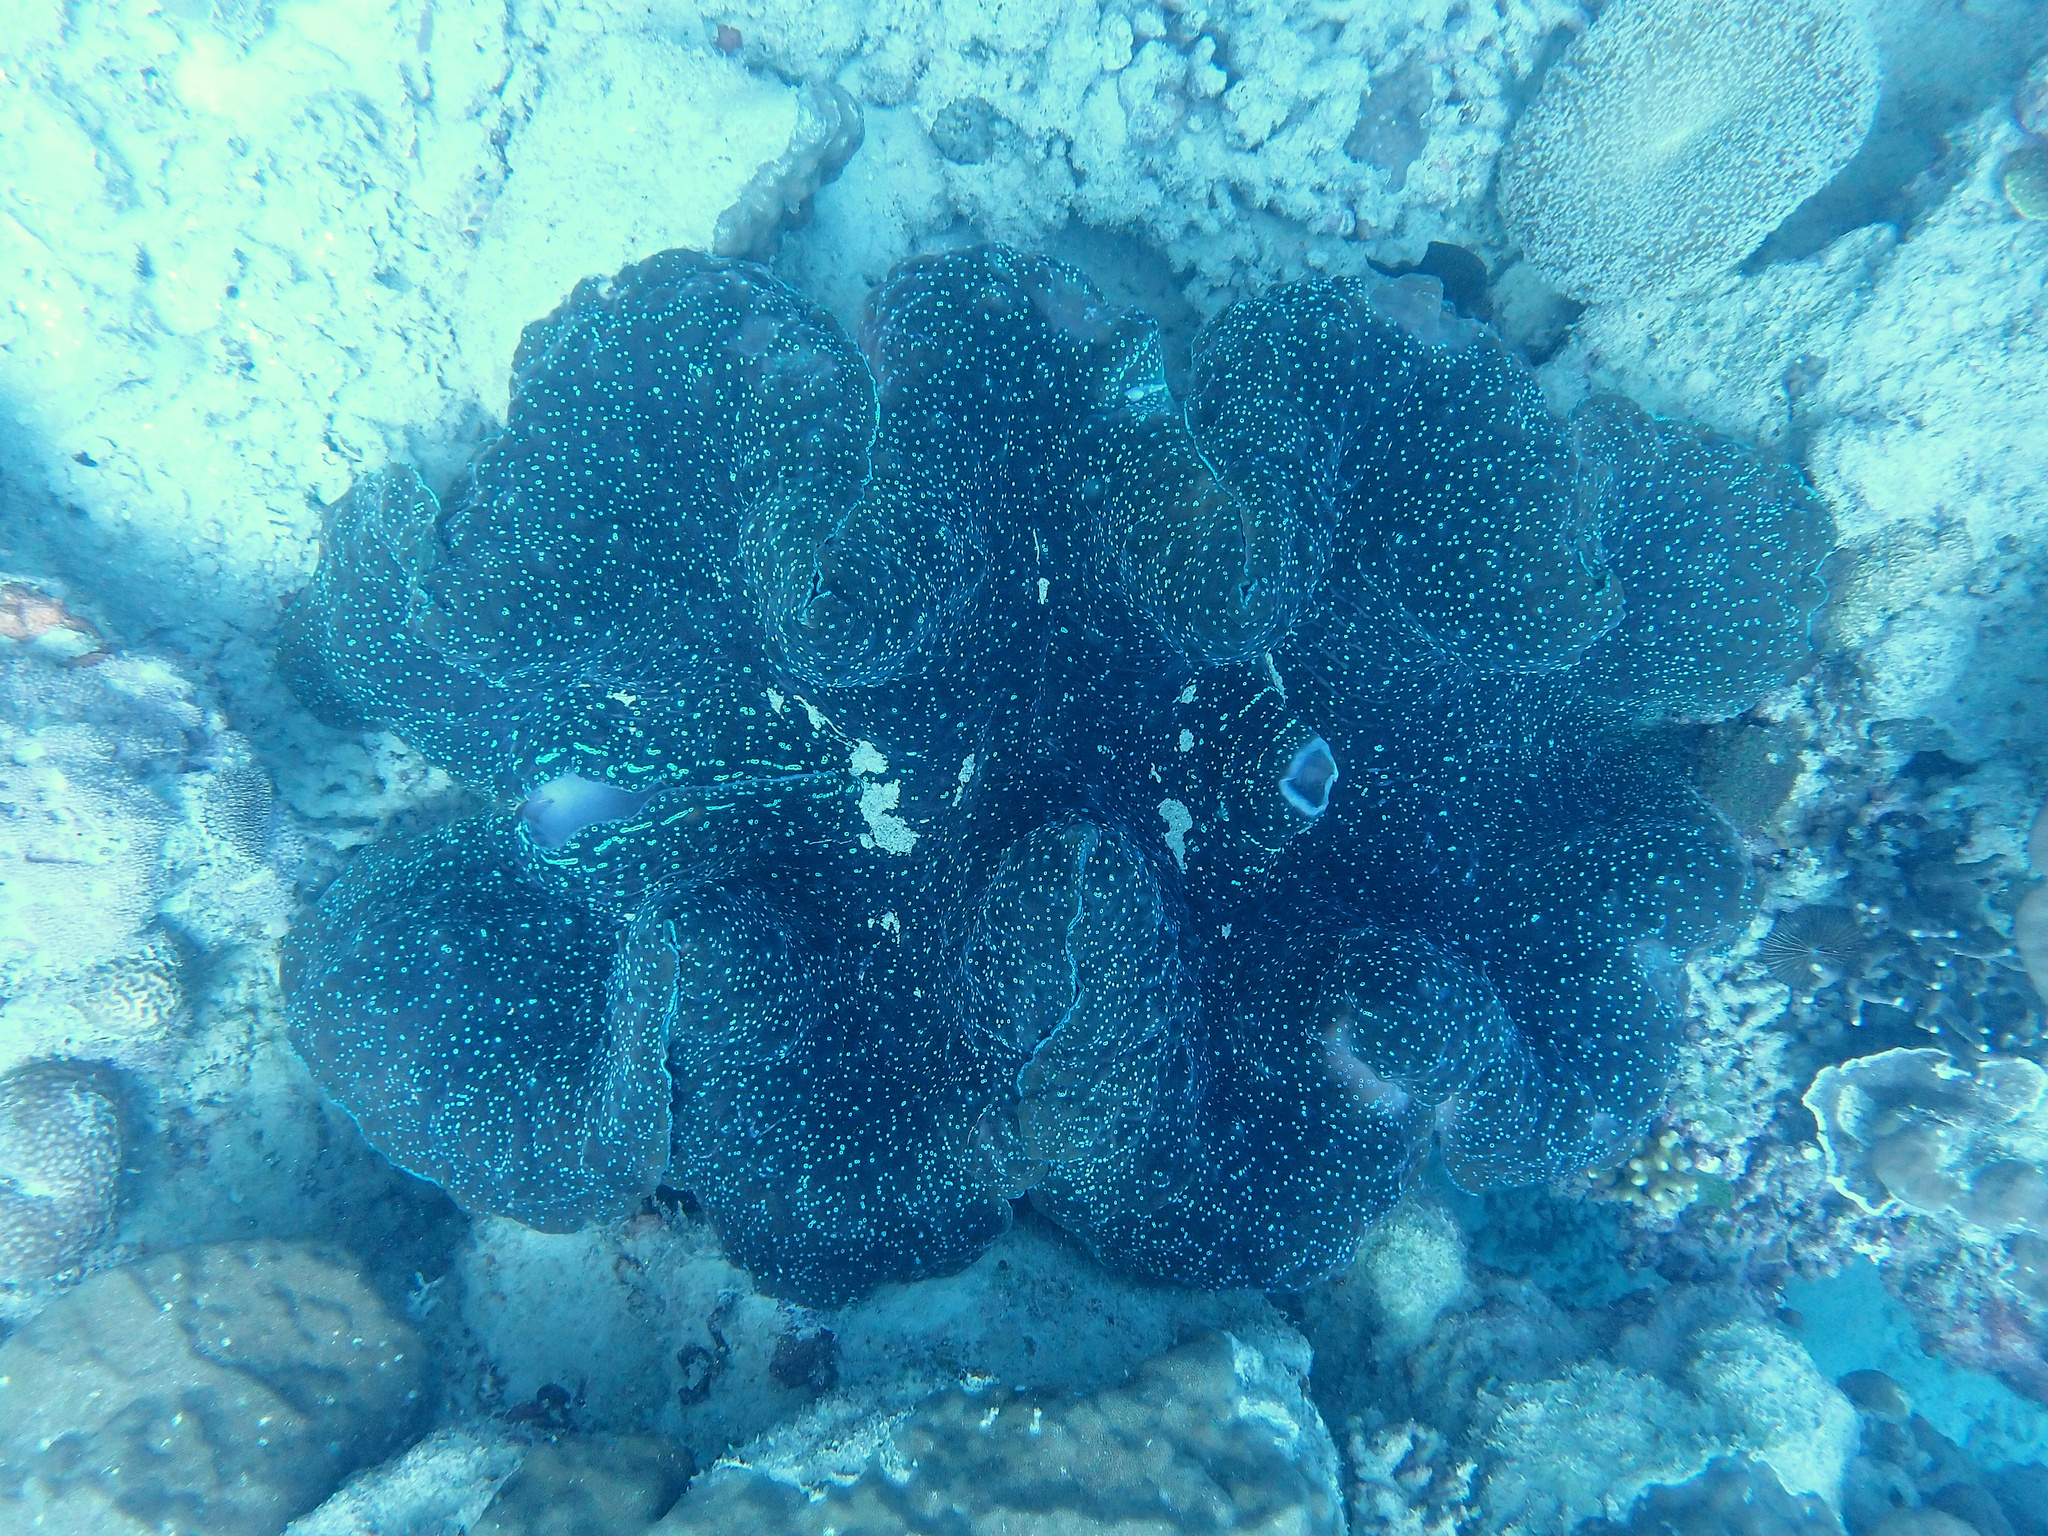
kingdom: Animalia
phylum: Mollusca
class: Bivalvia
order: Cardiida
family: Cardiidae
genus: Tridacna
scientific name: Tridacna gigas
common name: Giant clam
